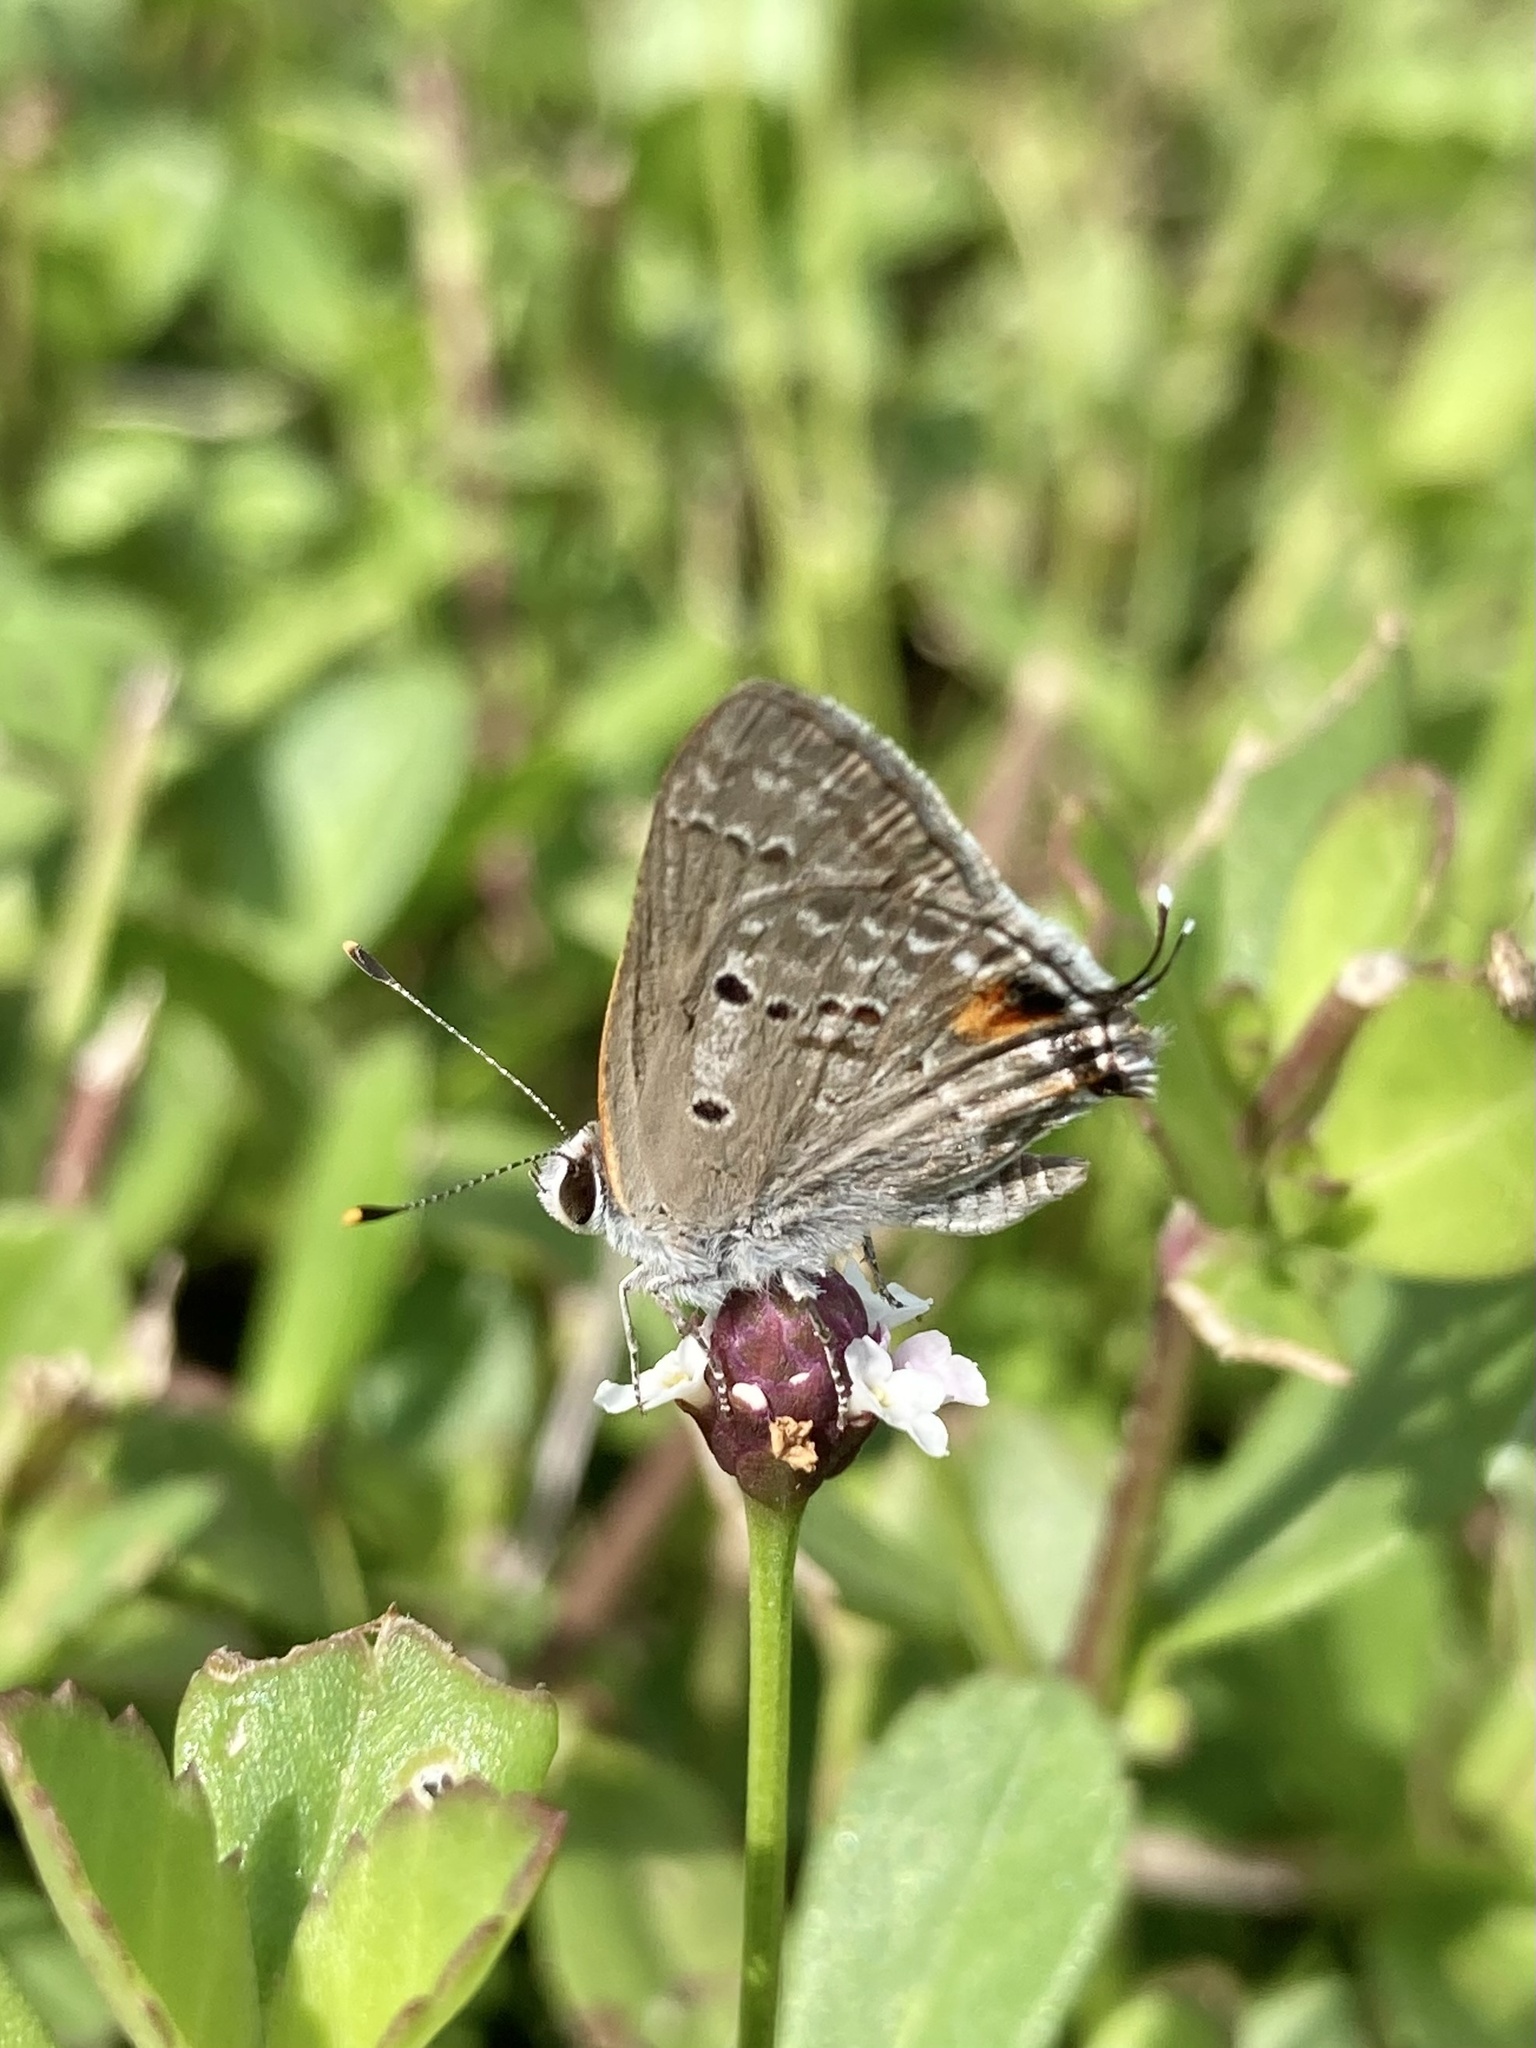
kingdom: Animalia
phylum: Arthropoda
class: Insecta
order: Lepidoptera
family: Lycaenidae
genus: Callicista
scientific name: Callicista columella
